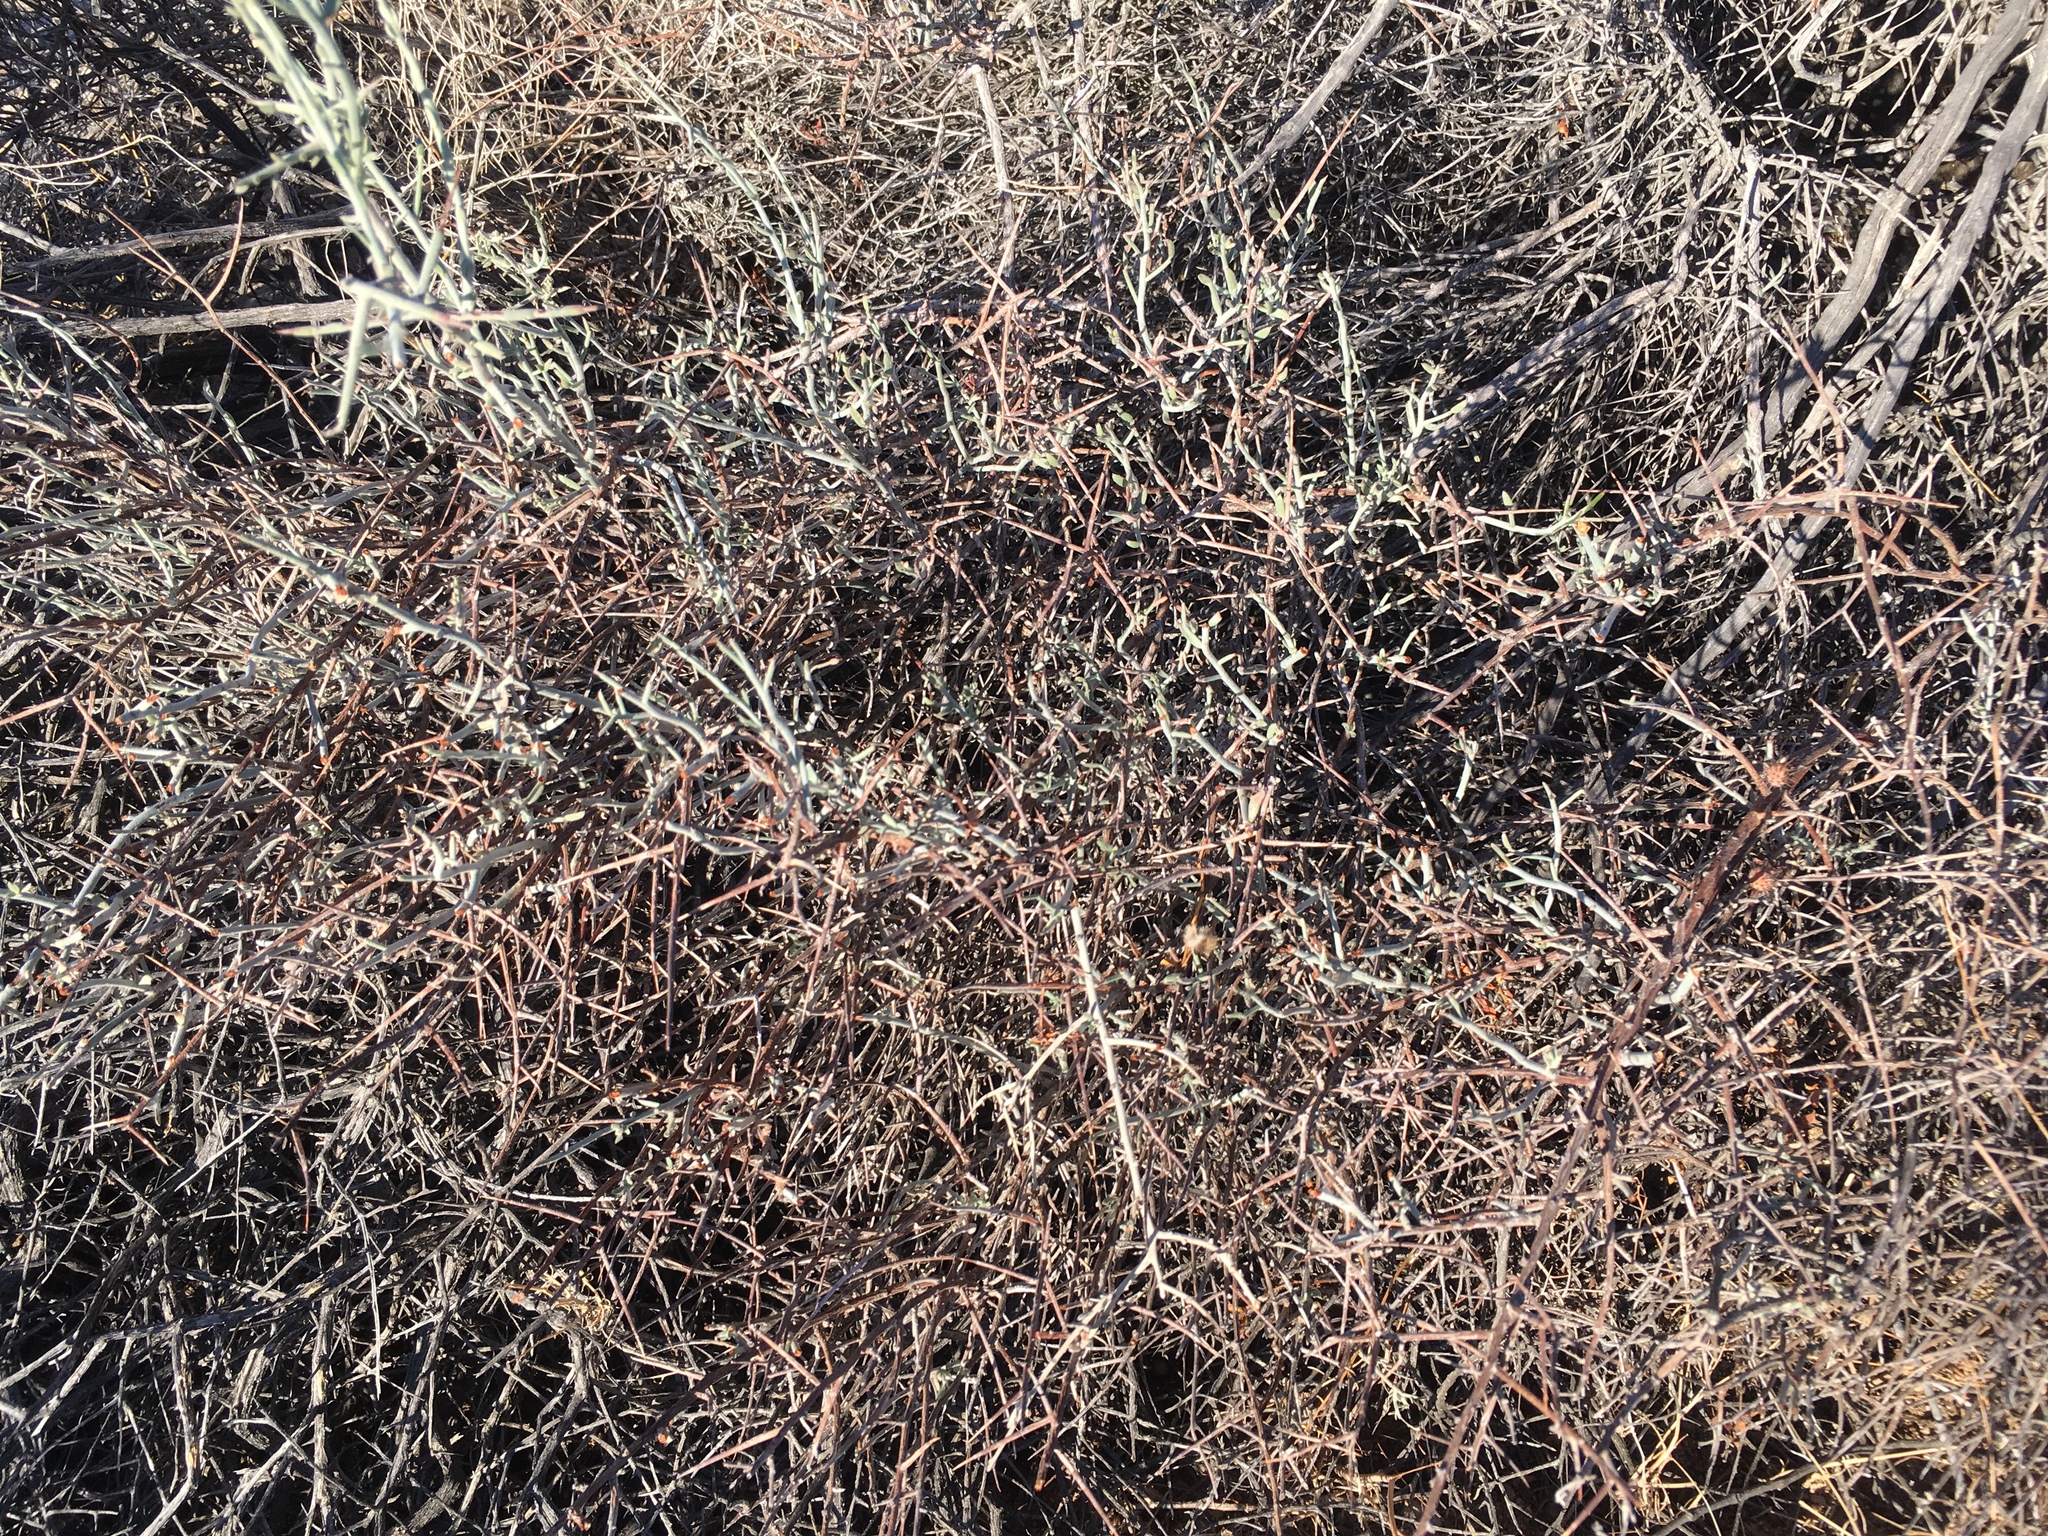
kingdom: Plantae
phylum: Tracheophyta
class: Magnoliopsida
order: Zygophyllales
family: Krameriaceae
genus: Krameria
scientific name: Krameria bicolor
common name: White ratany
